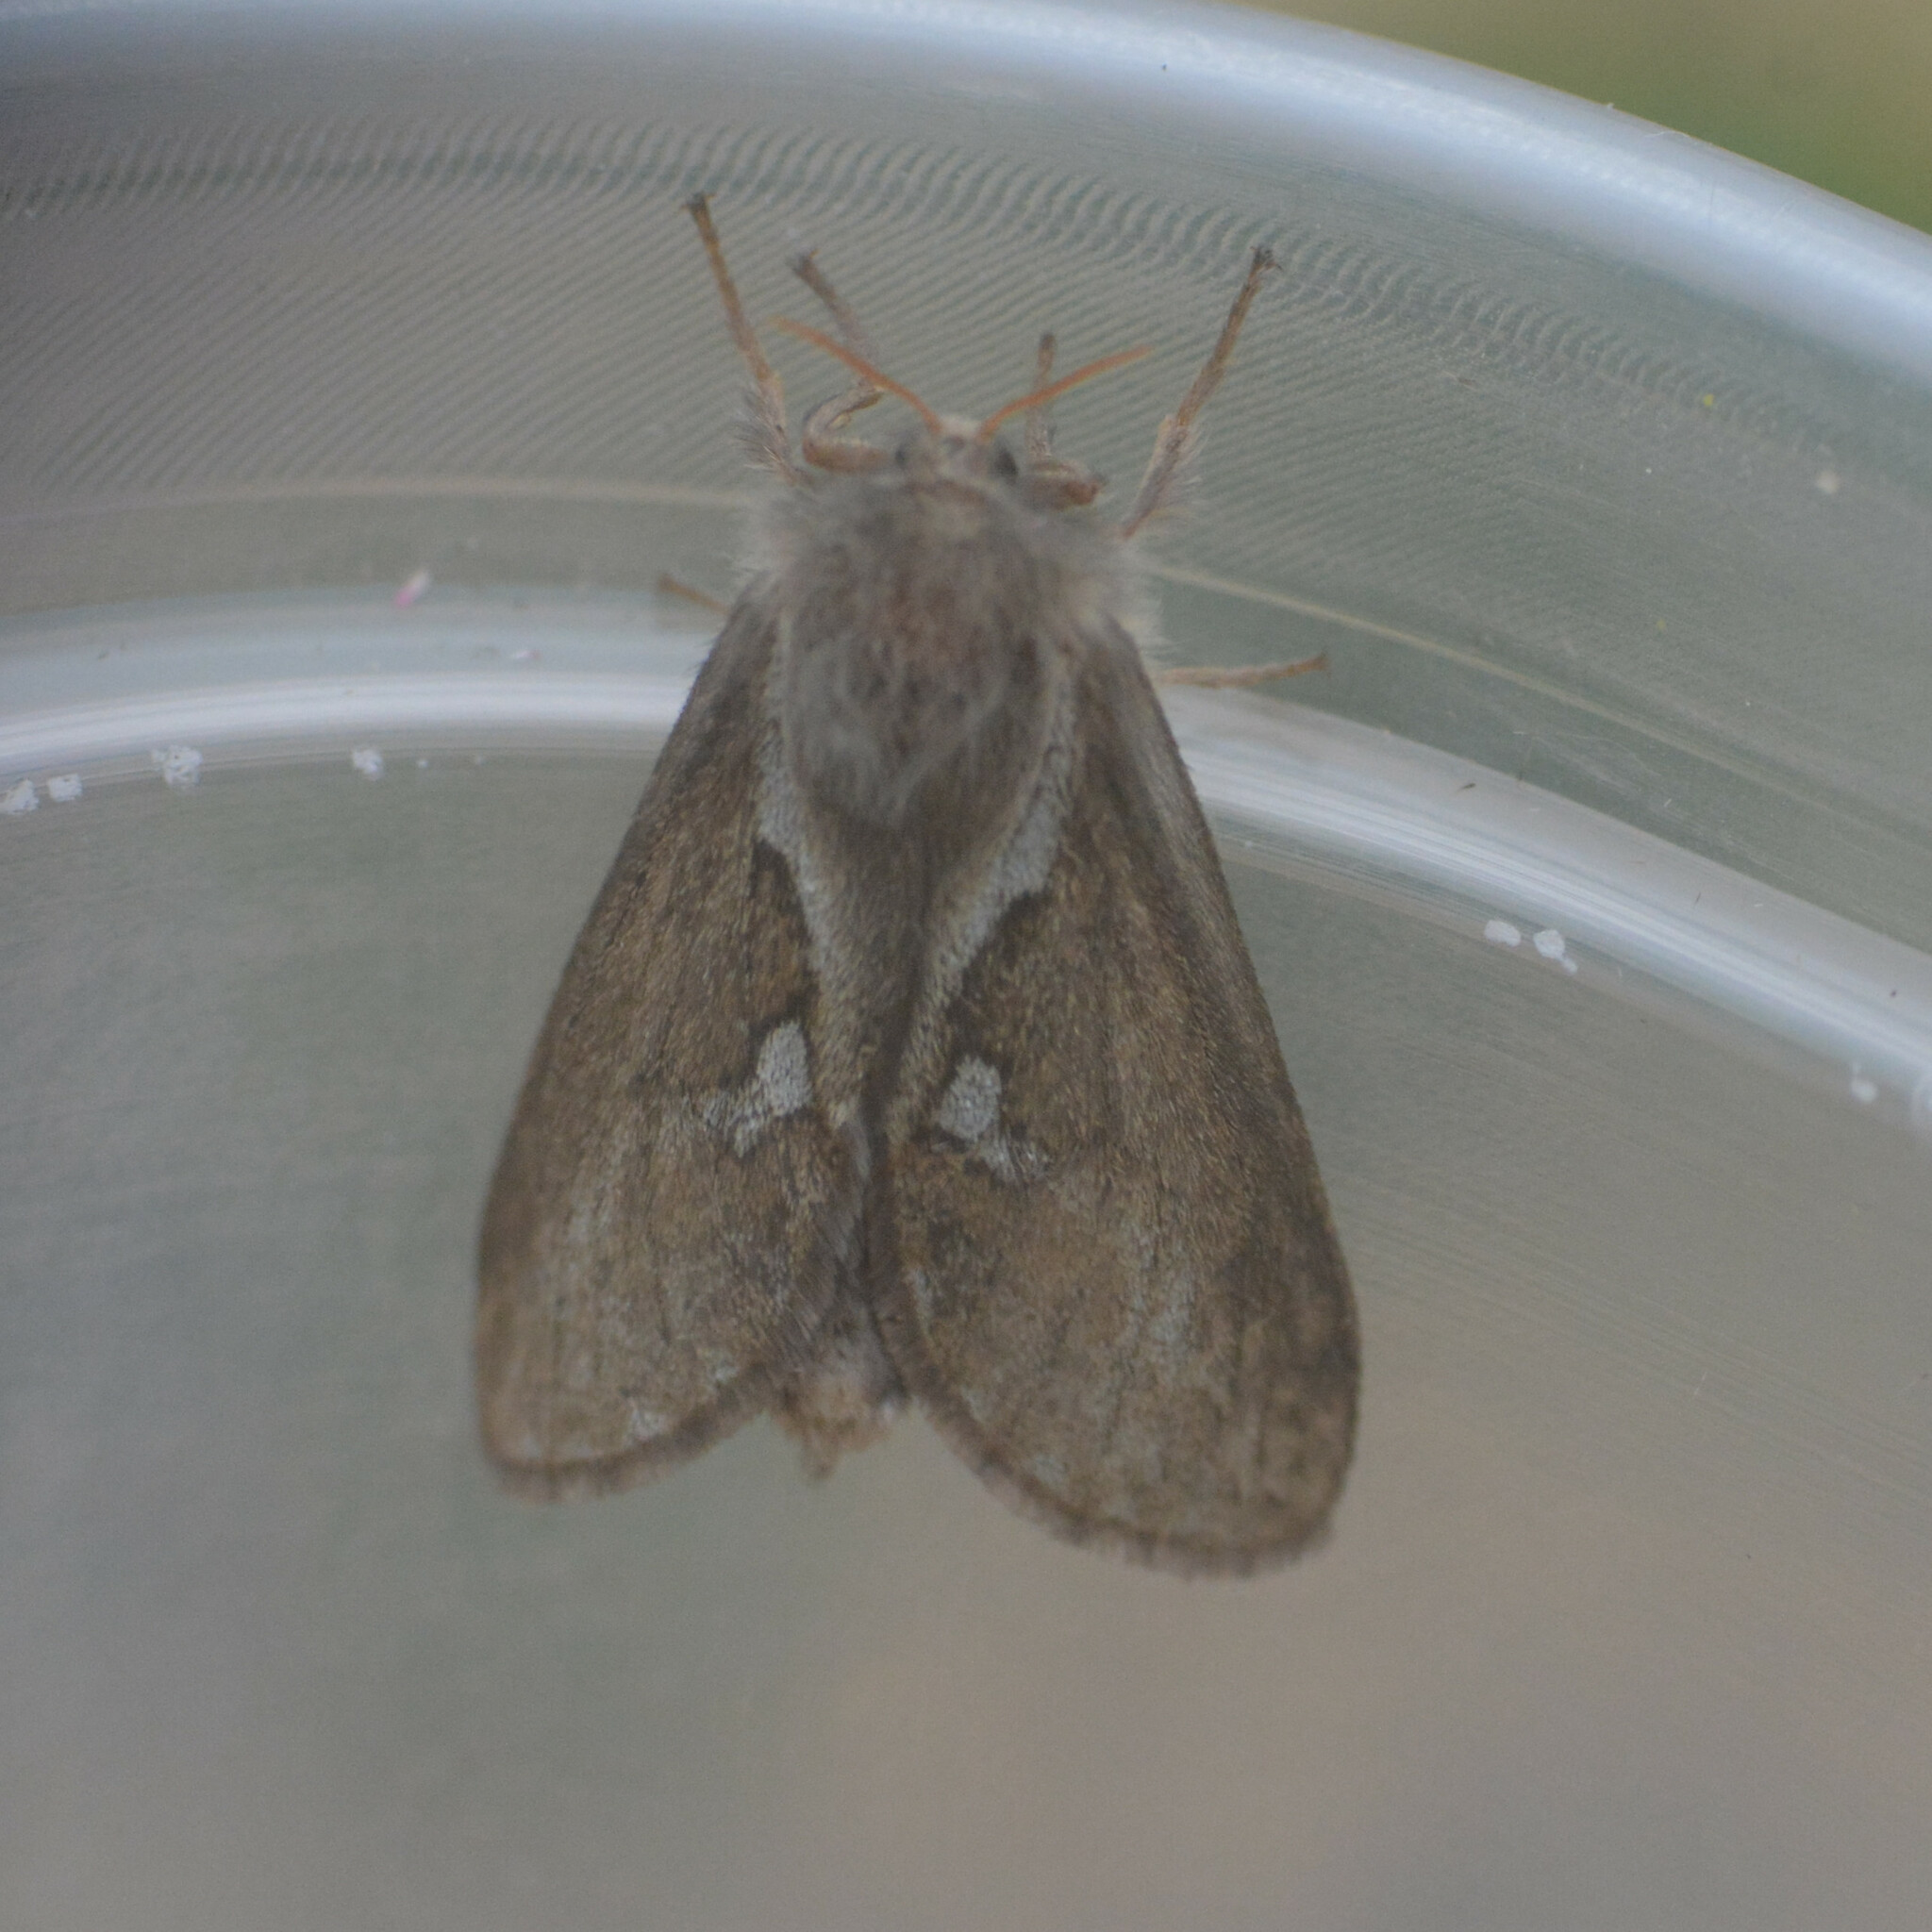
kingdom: Animalia
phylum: Arthropoda
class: Insecta
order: Lepidoptera
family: Hepialidae
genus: Korscheltellus
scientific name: Korscheltellus lupulina
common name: Common swift
